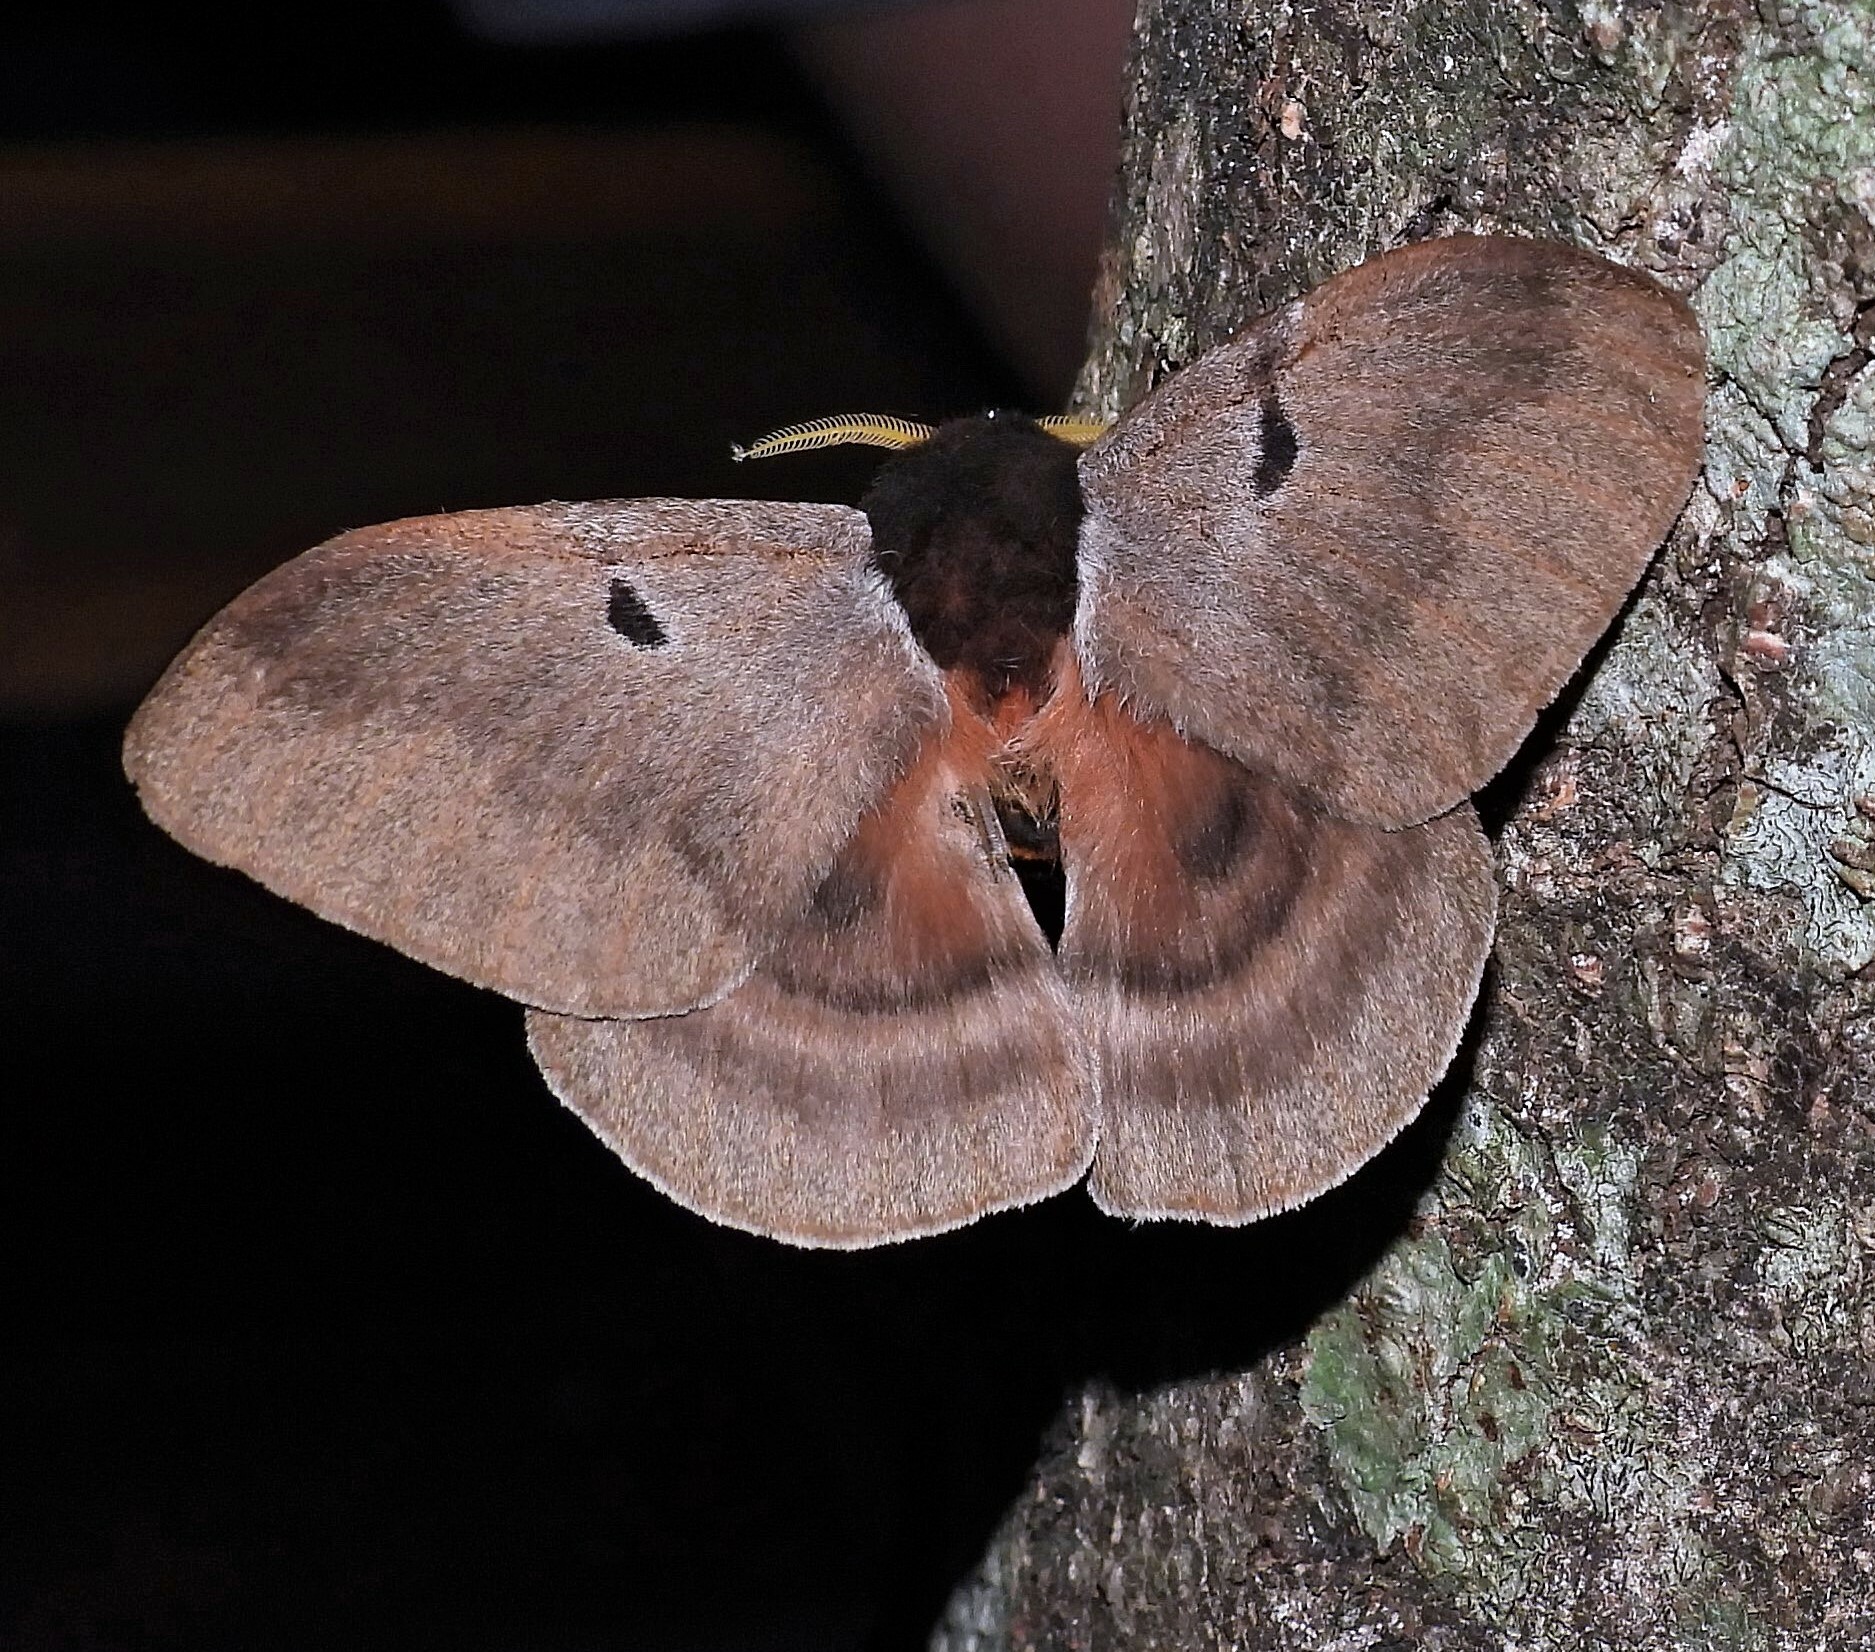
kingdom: Animalia
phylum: Arthropoda
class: Insecta
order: Lepidoptera
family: Saturniidae
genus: Dirphia
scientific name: Dirphia baroma
